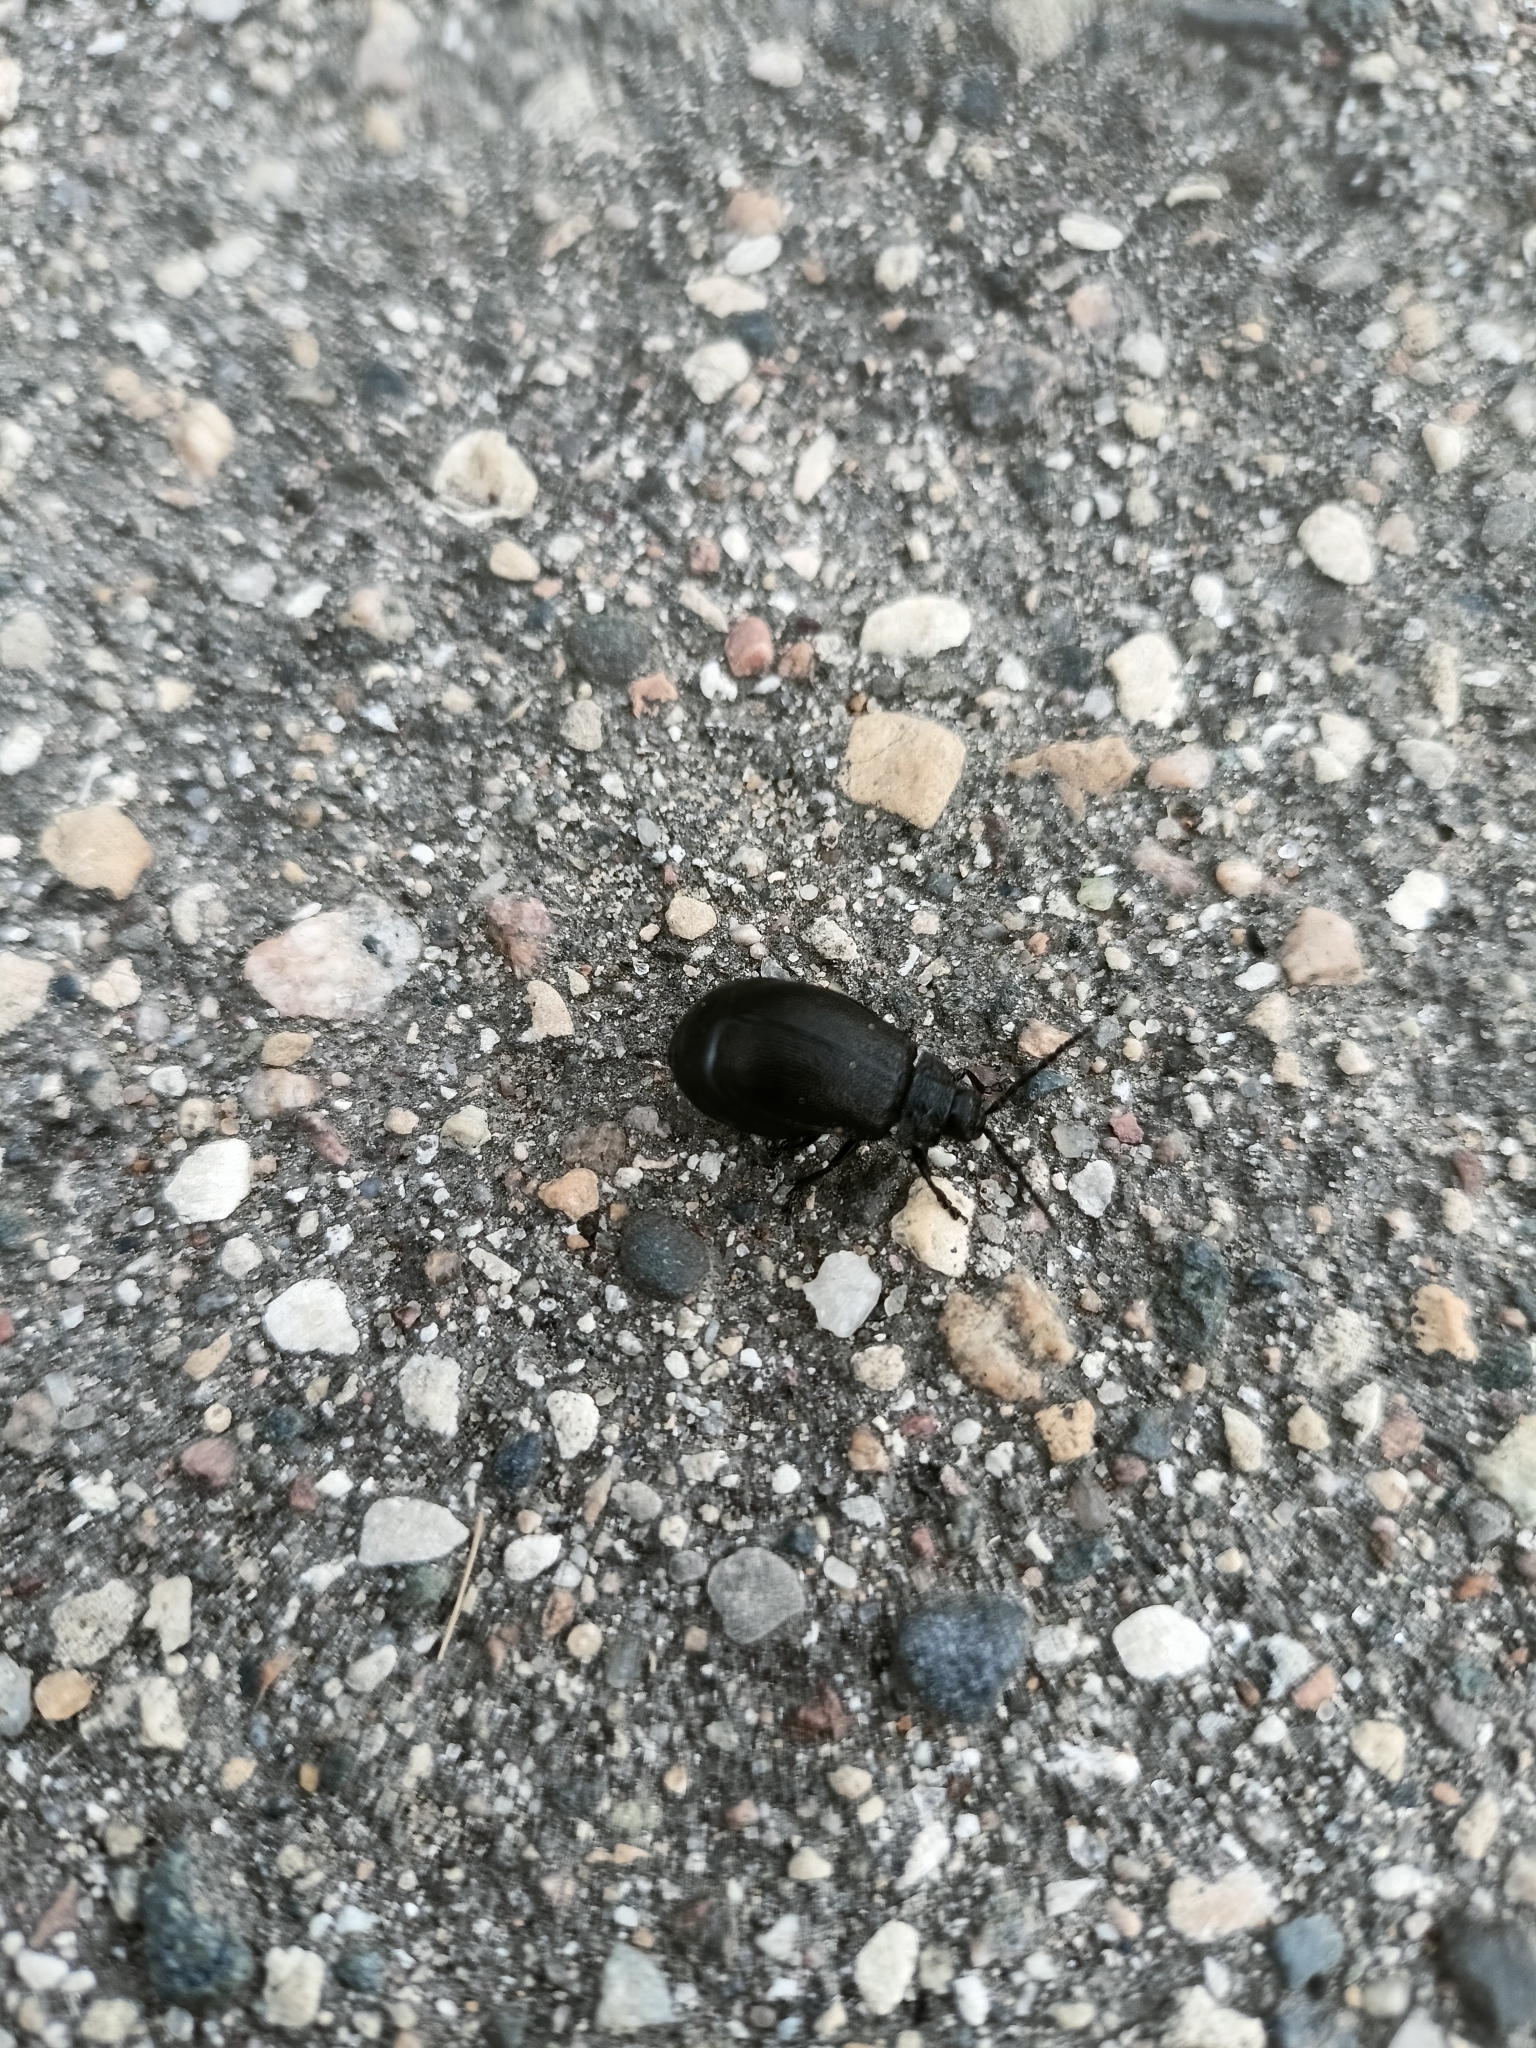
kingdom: Animalia
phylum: Arthropoda
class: Insecta
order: Coleoptera
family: Chrysomelidae
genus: Galeruca
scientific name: Galeruca tanaceti
